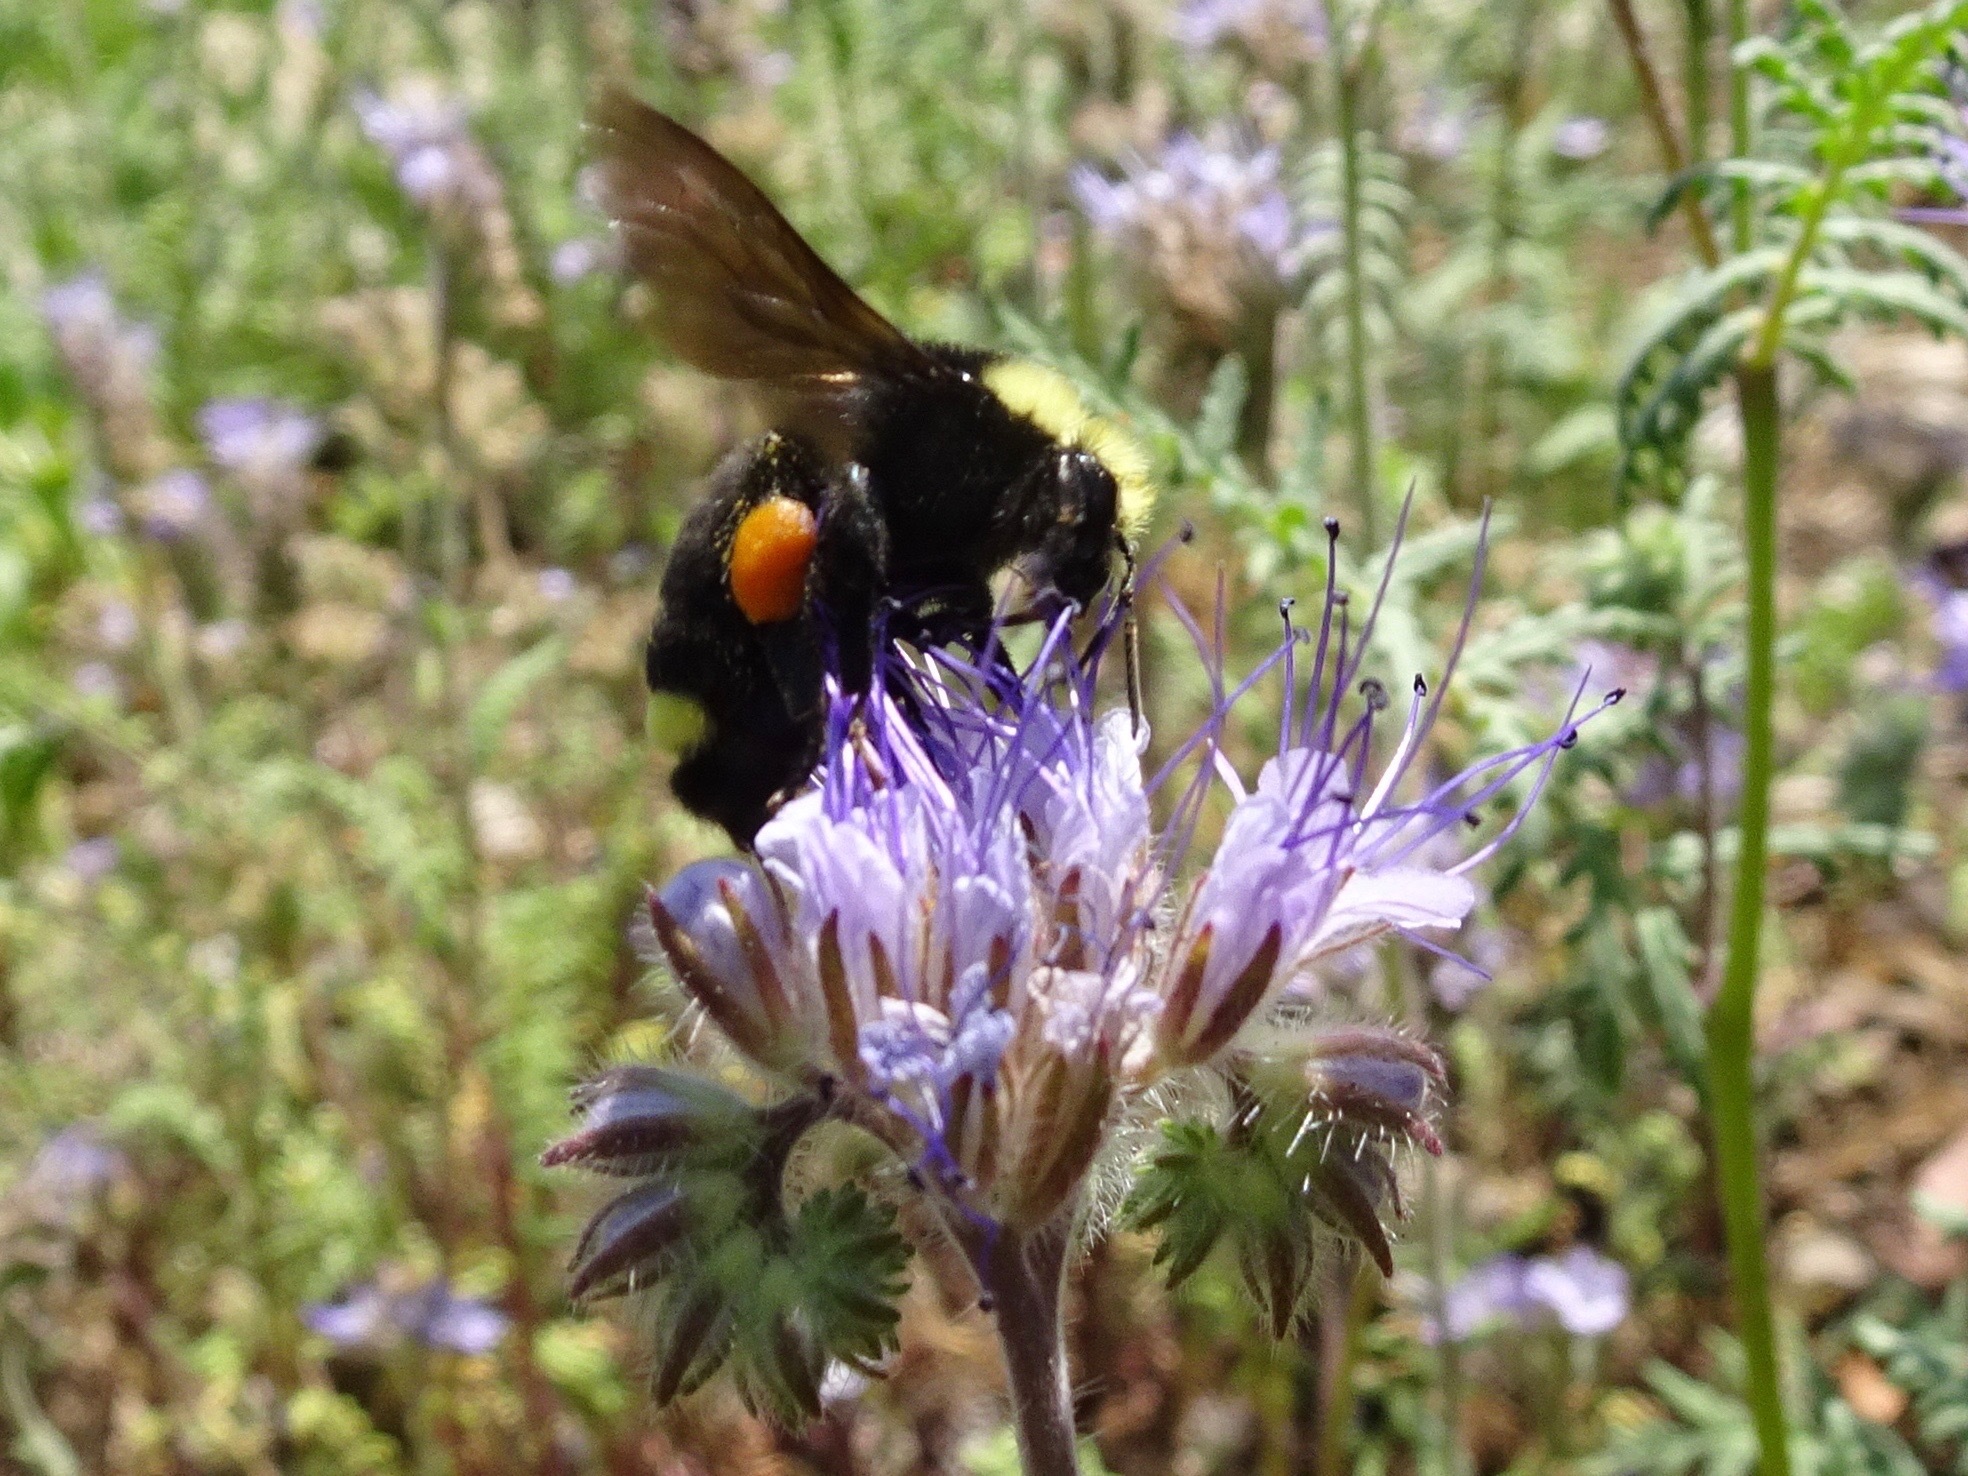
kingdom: Animalia
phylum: Arthropoda
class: Insecta
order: Hymenoptera
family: Apidae
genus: Bombus
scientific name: Bombus vosnesenskii
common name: Vosnesensky bumble bee
